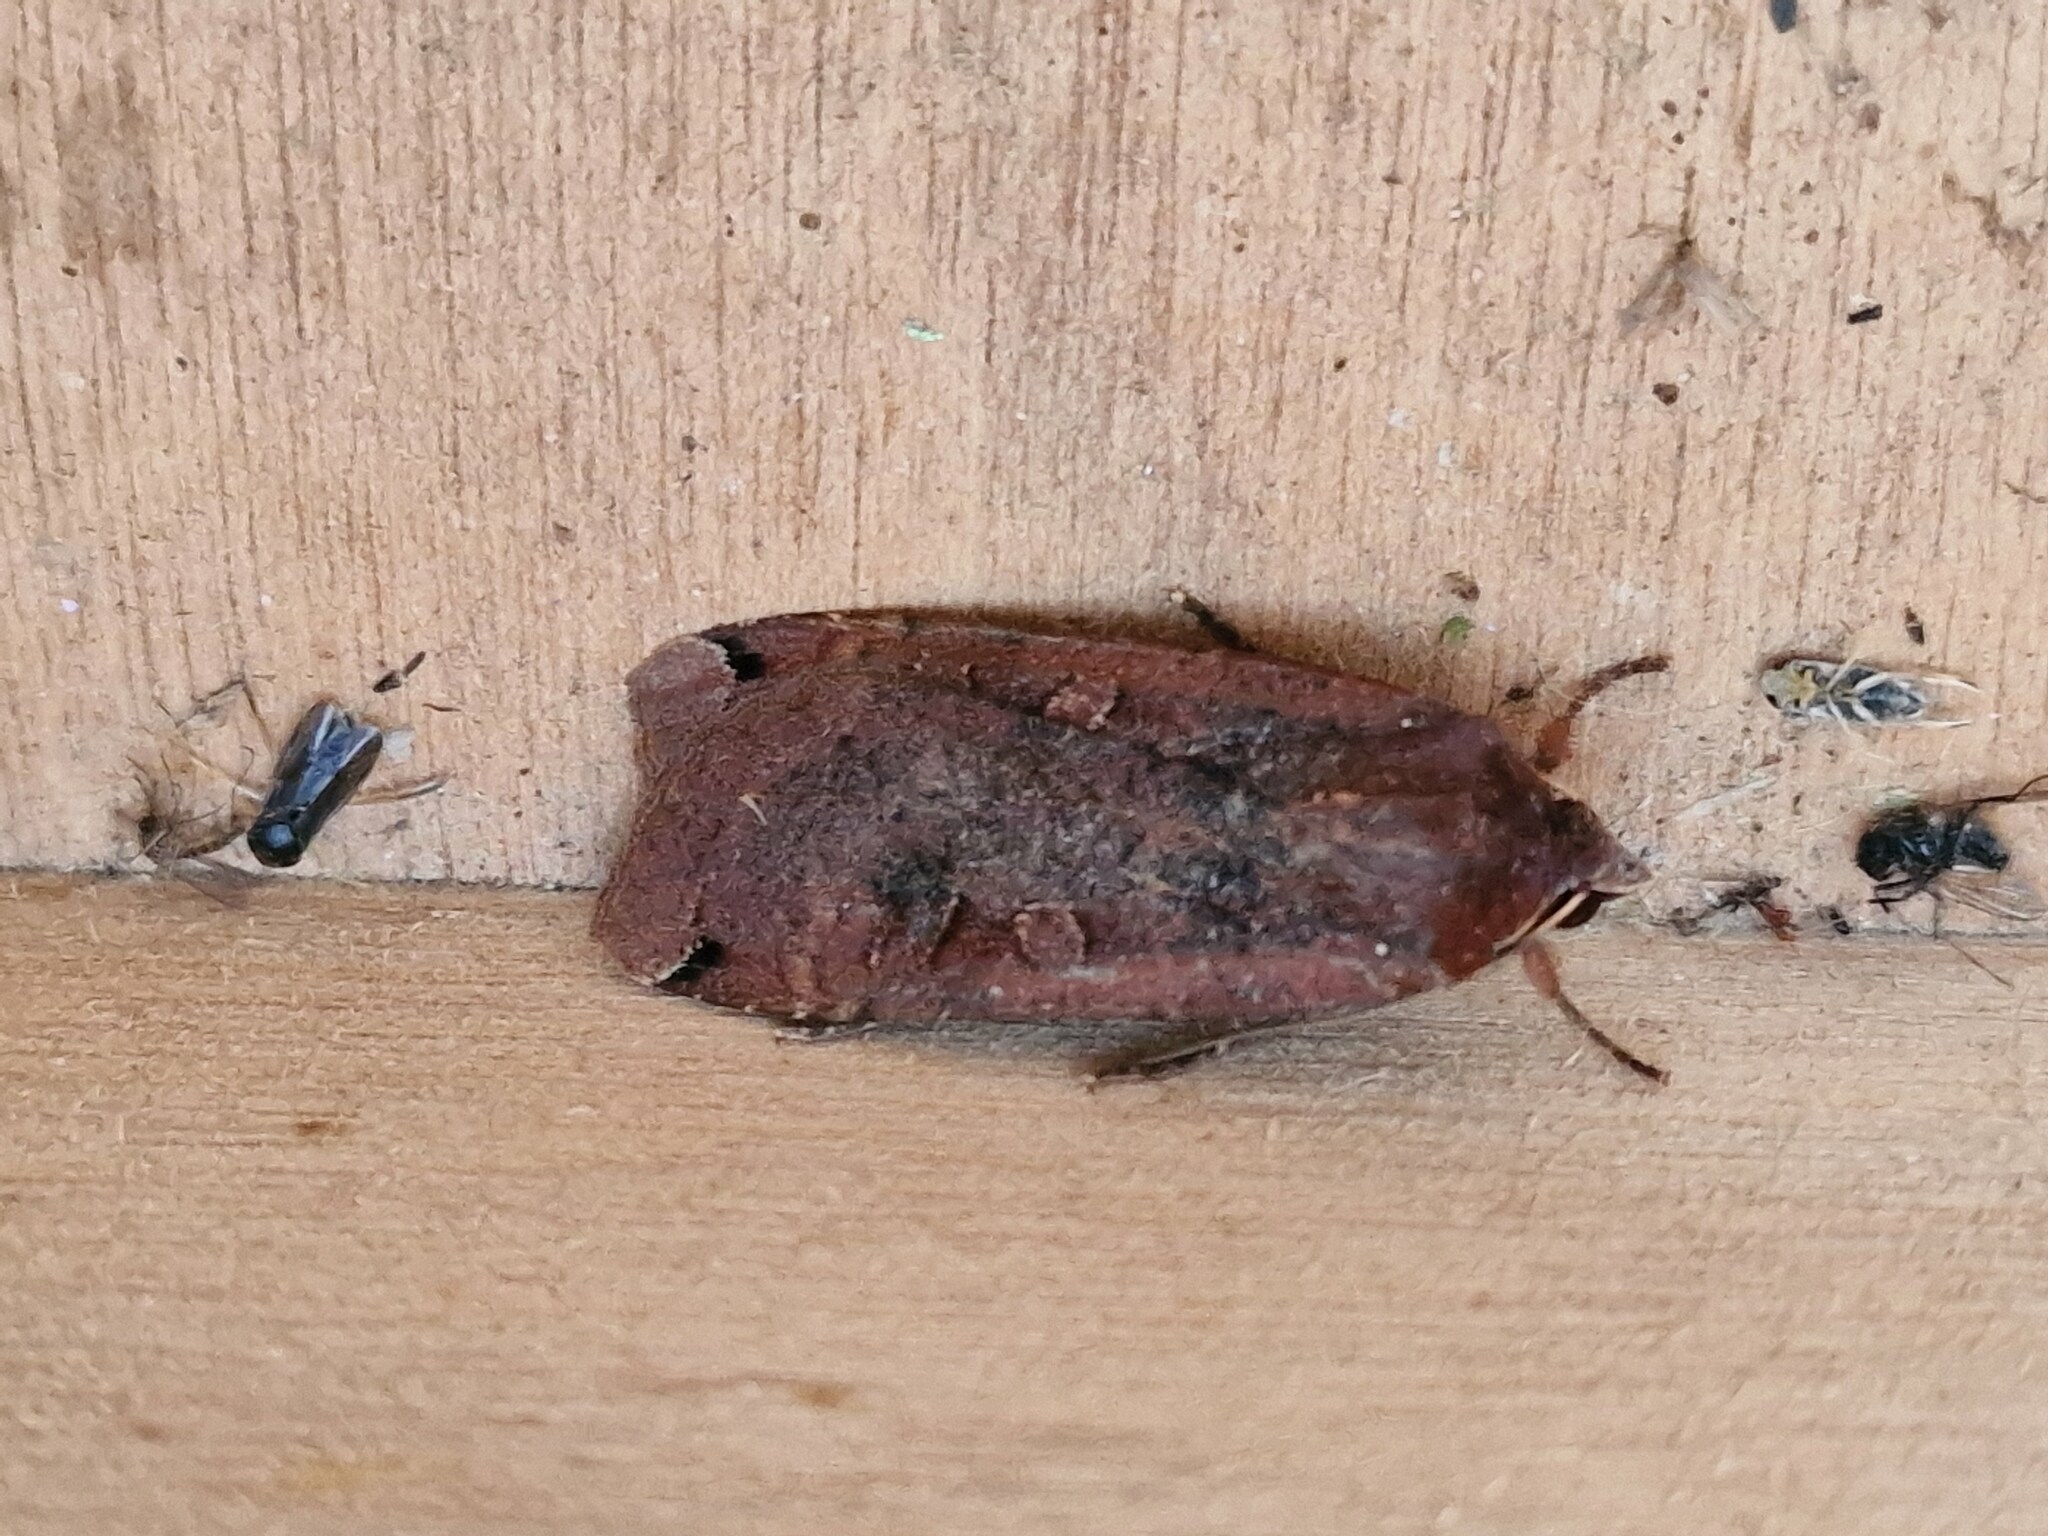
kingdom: Animalia
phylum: Arthropoda
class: Insecta
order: Lepidoptera
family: Noctuidae
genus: Noctua
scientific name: Noctua pronuba
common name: Large yellow underwing
